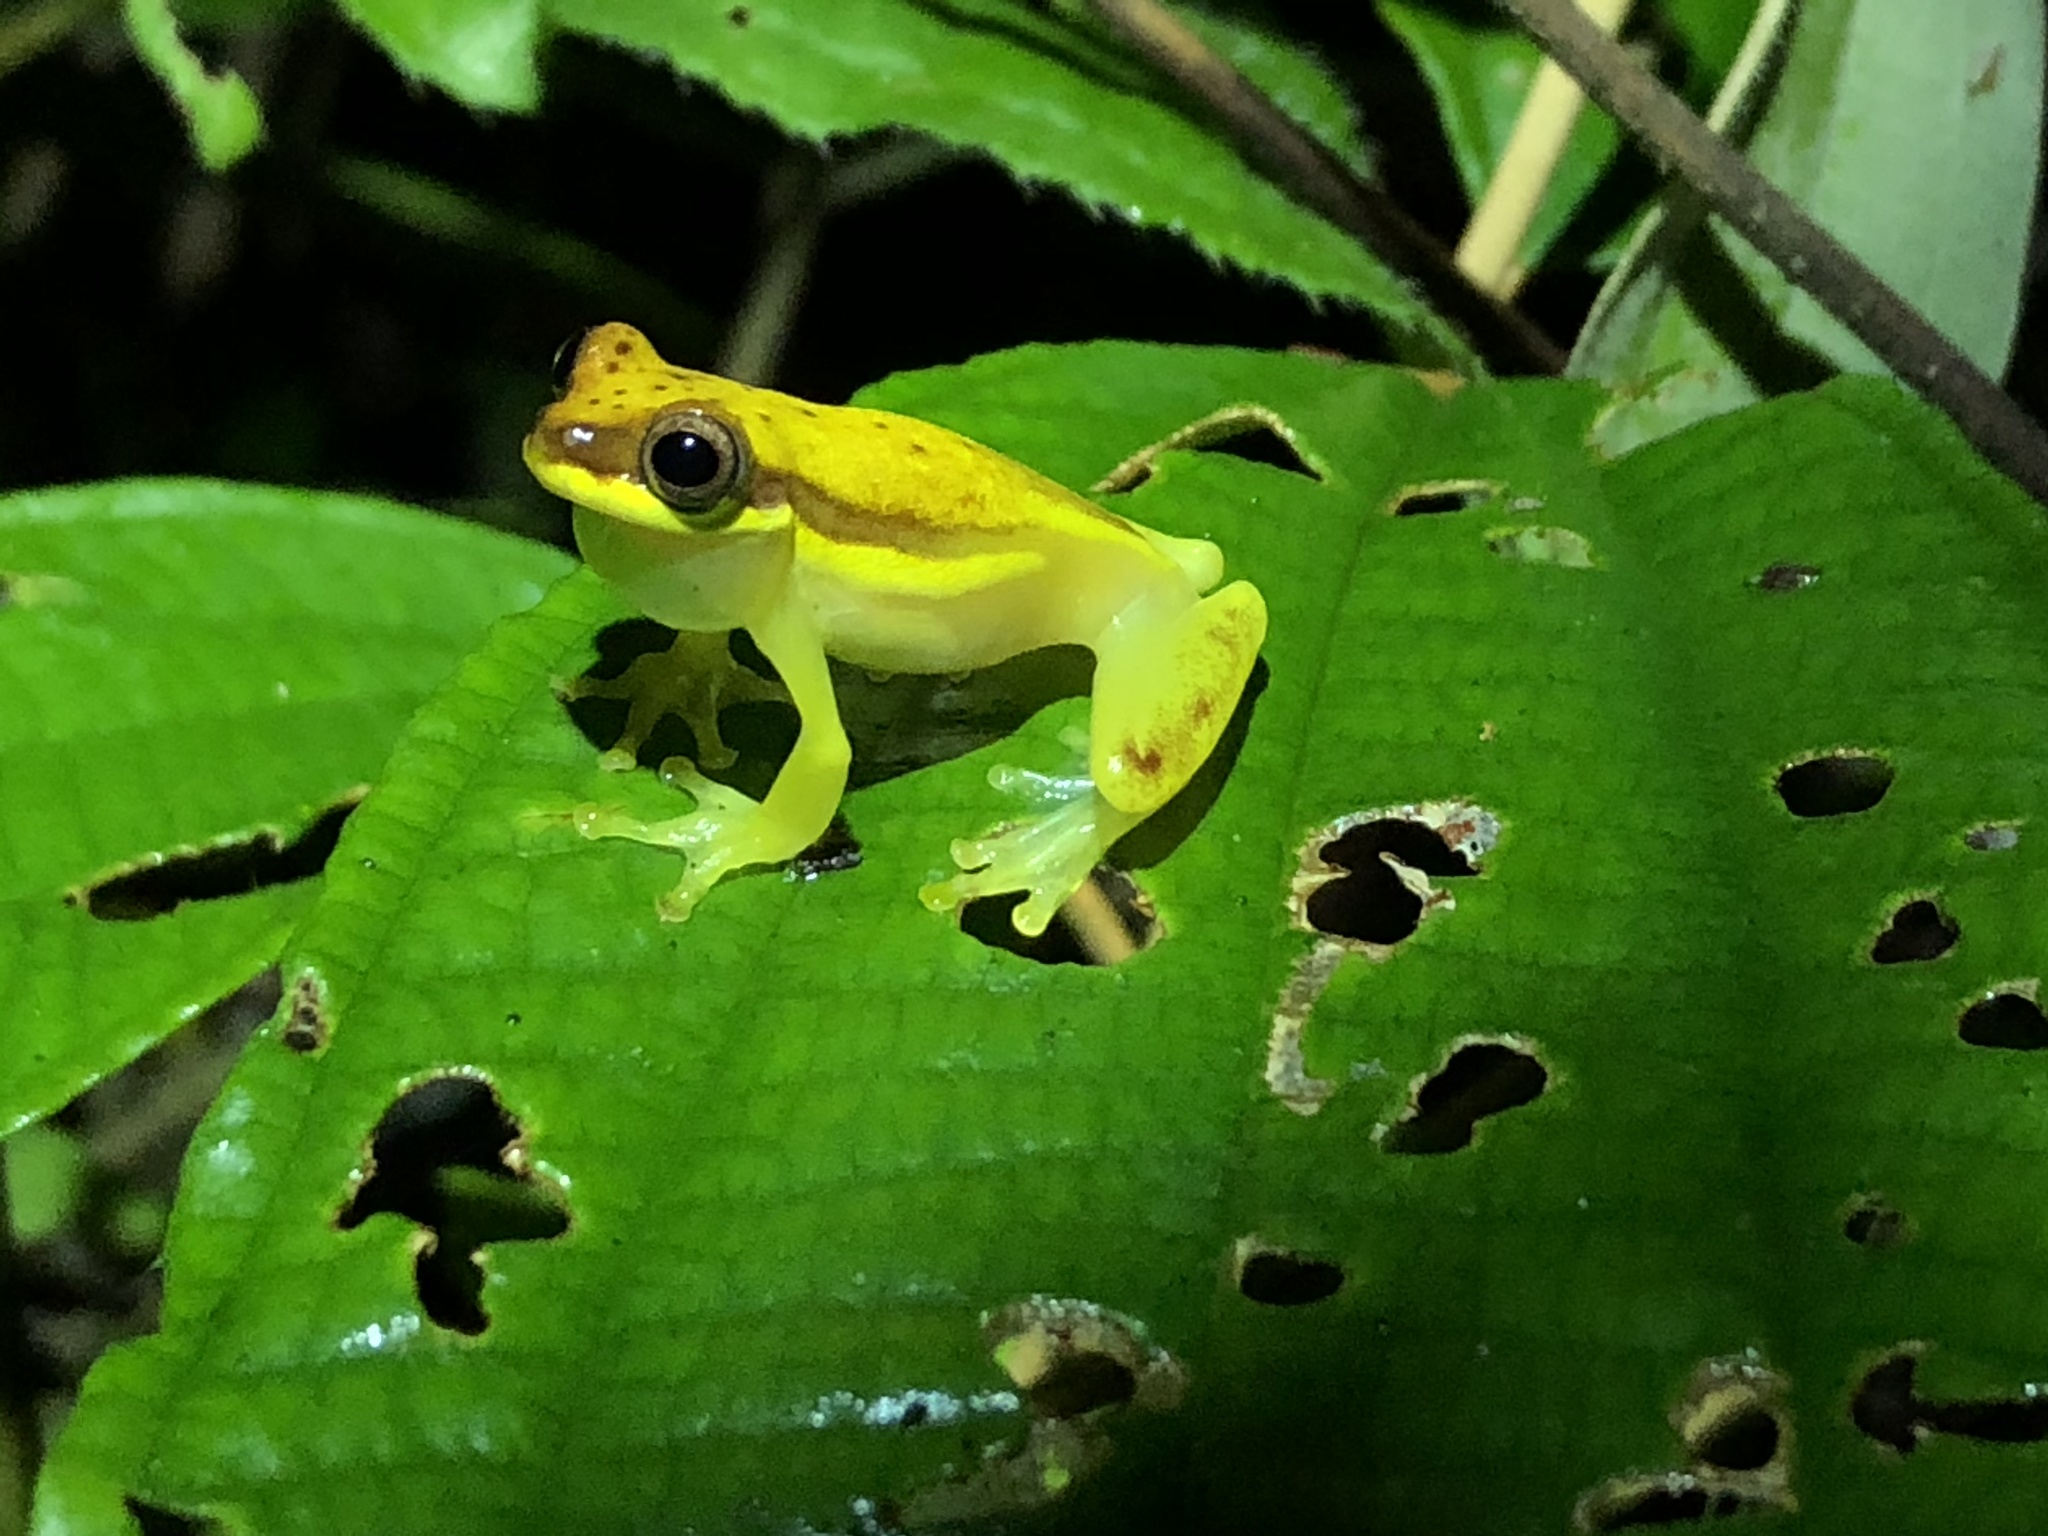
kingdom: Animalia
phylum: Chordata
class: Amphibia
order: Anura
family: Hylidae
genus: Dendropsophus
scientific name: Dendropsophus rhodopeplus
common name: Red-skirted treefrog
